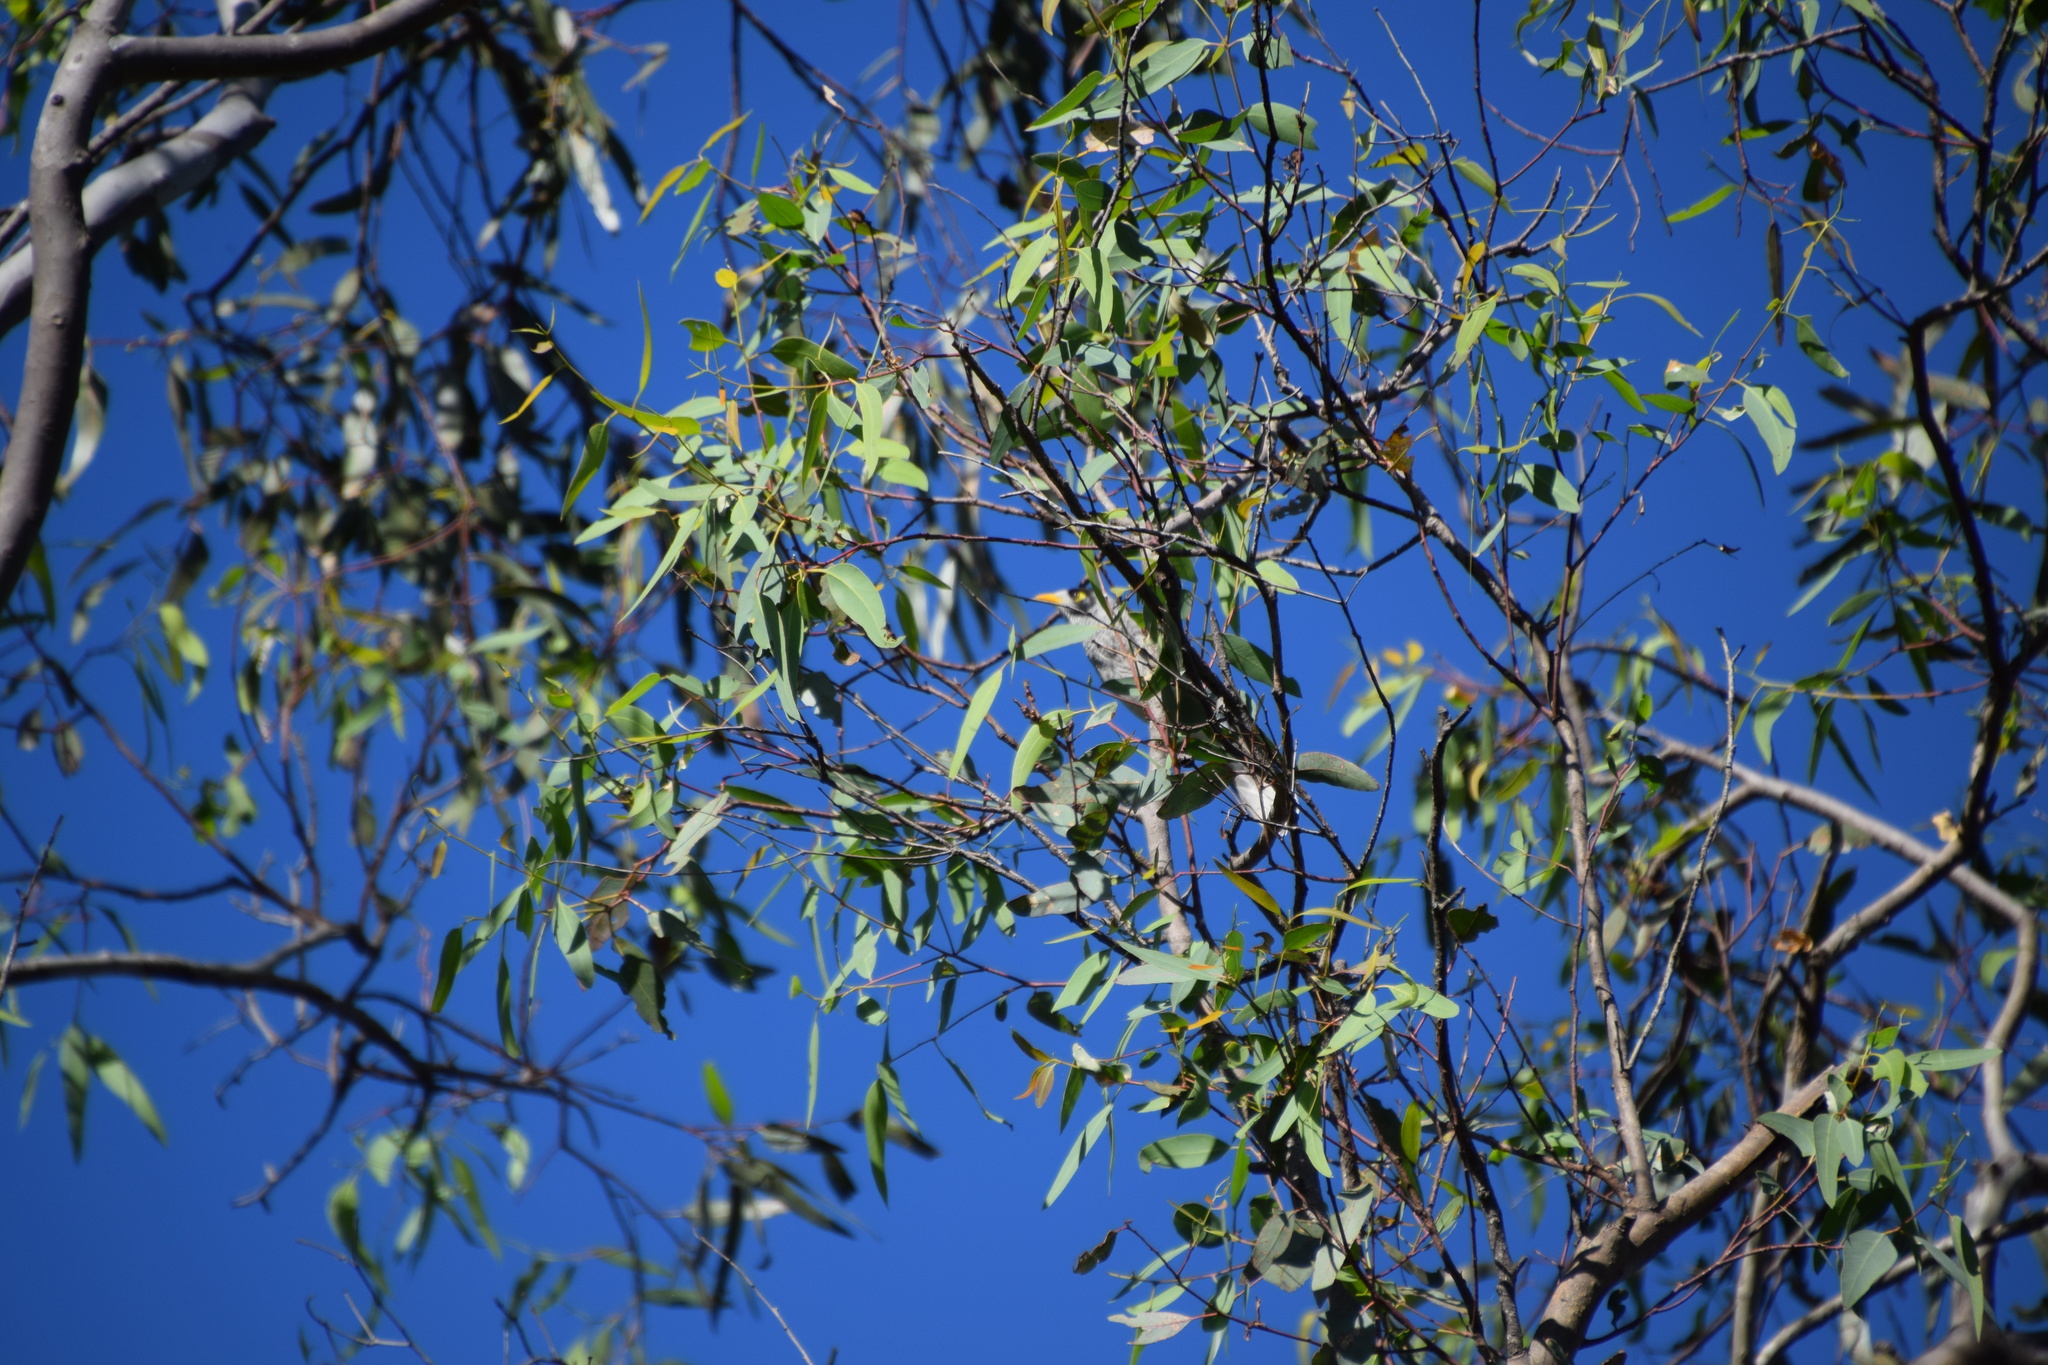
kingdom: Animalia
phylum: Chordata
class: Aves
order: Passeriformes
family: Meliphagidae
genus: Manorina
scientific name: Manorina melanocephala
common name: Noisy miner
